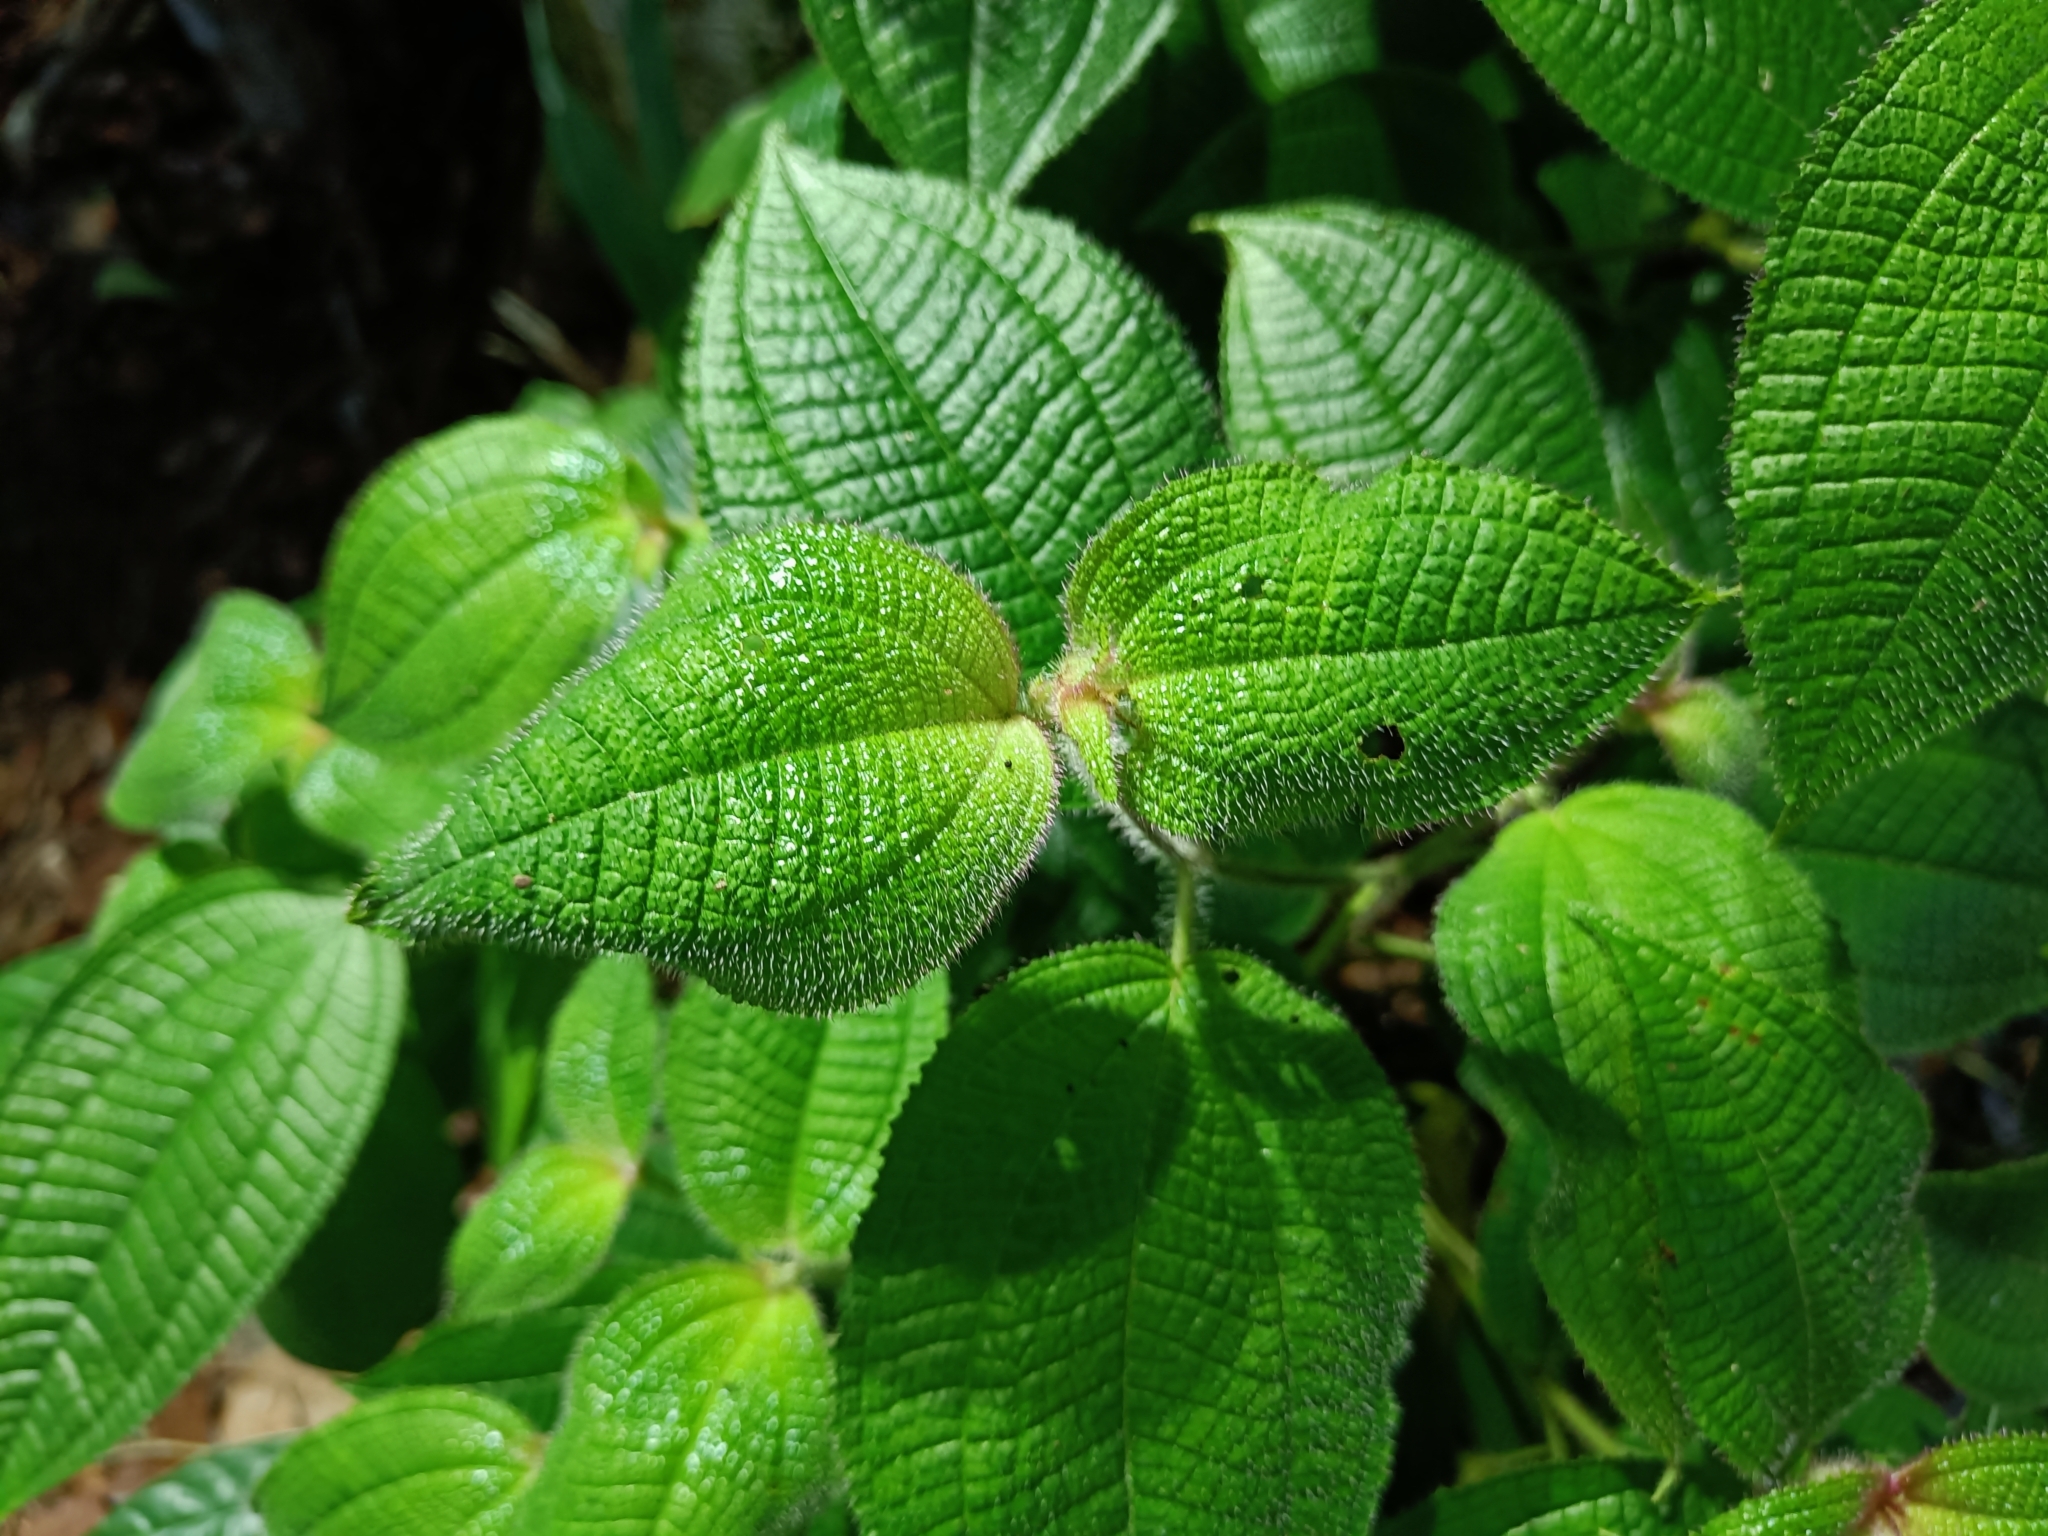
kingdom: Plantae
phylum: Tracheophyta
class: Magnoliopsida
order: Myrtales
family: Melastomataceae
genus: Miconia
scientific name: Miconia crenata
